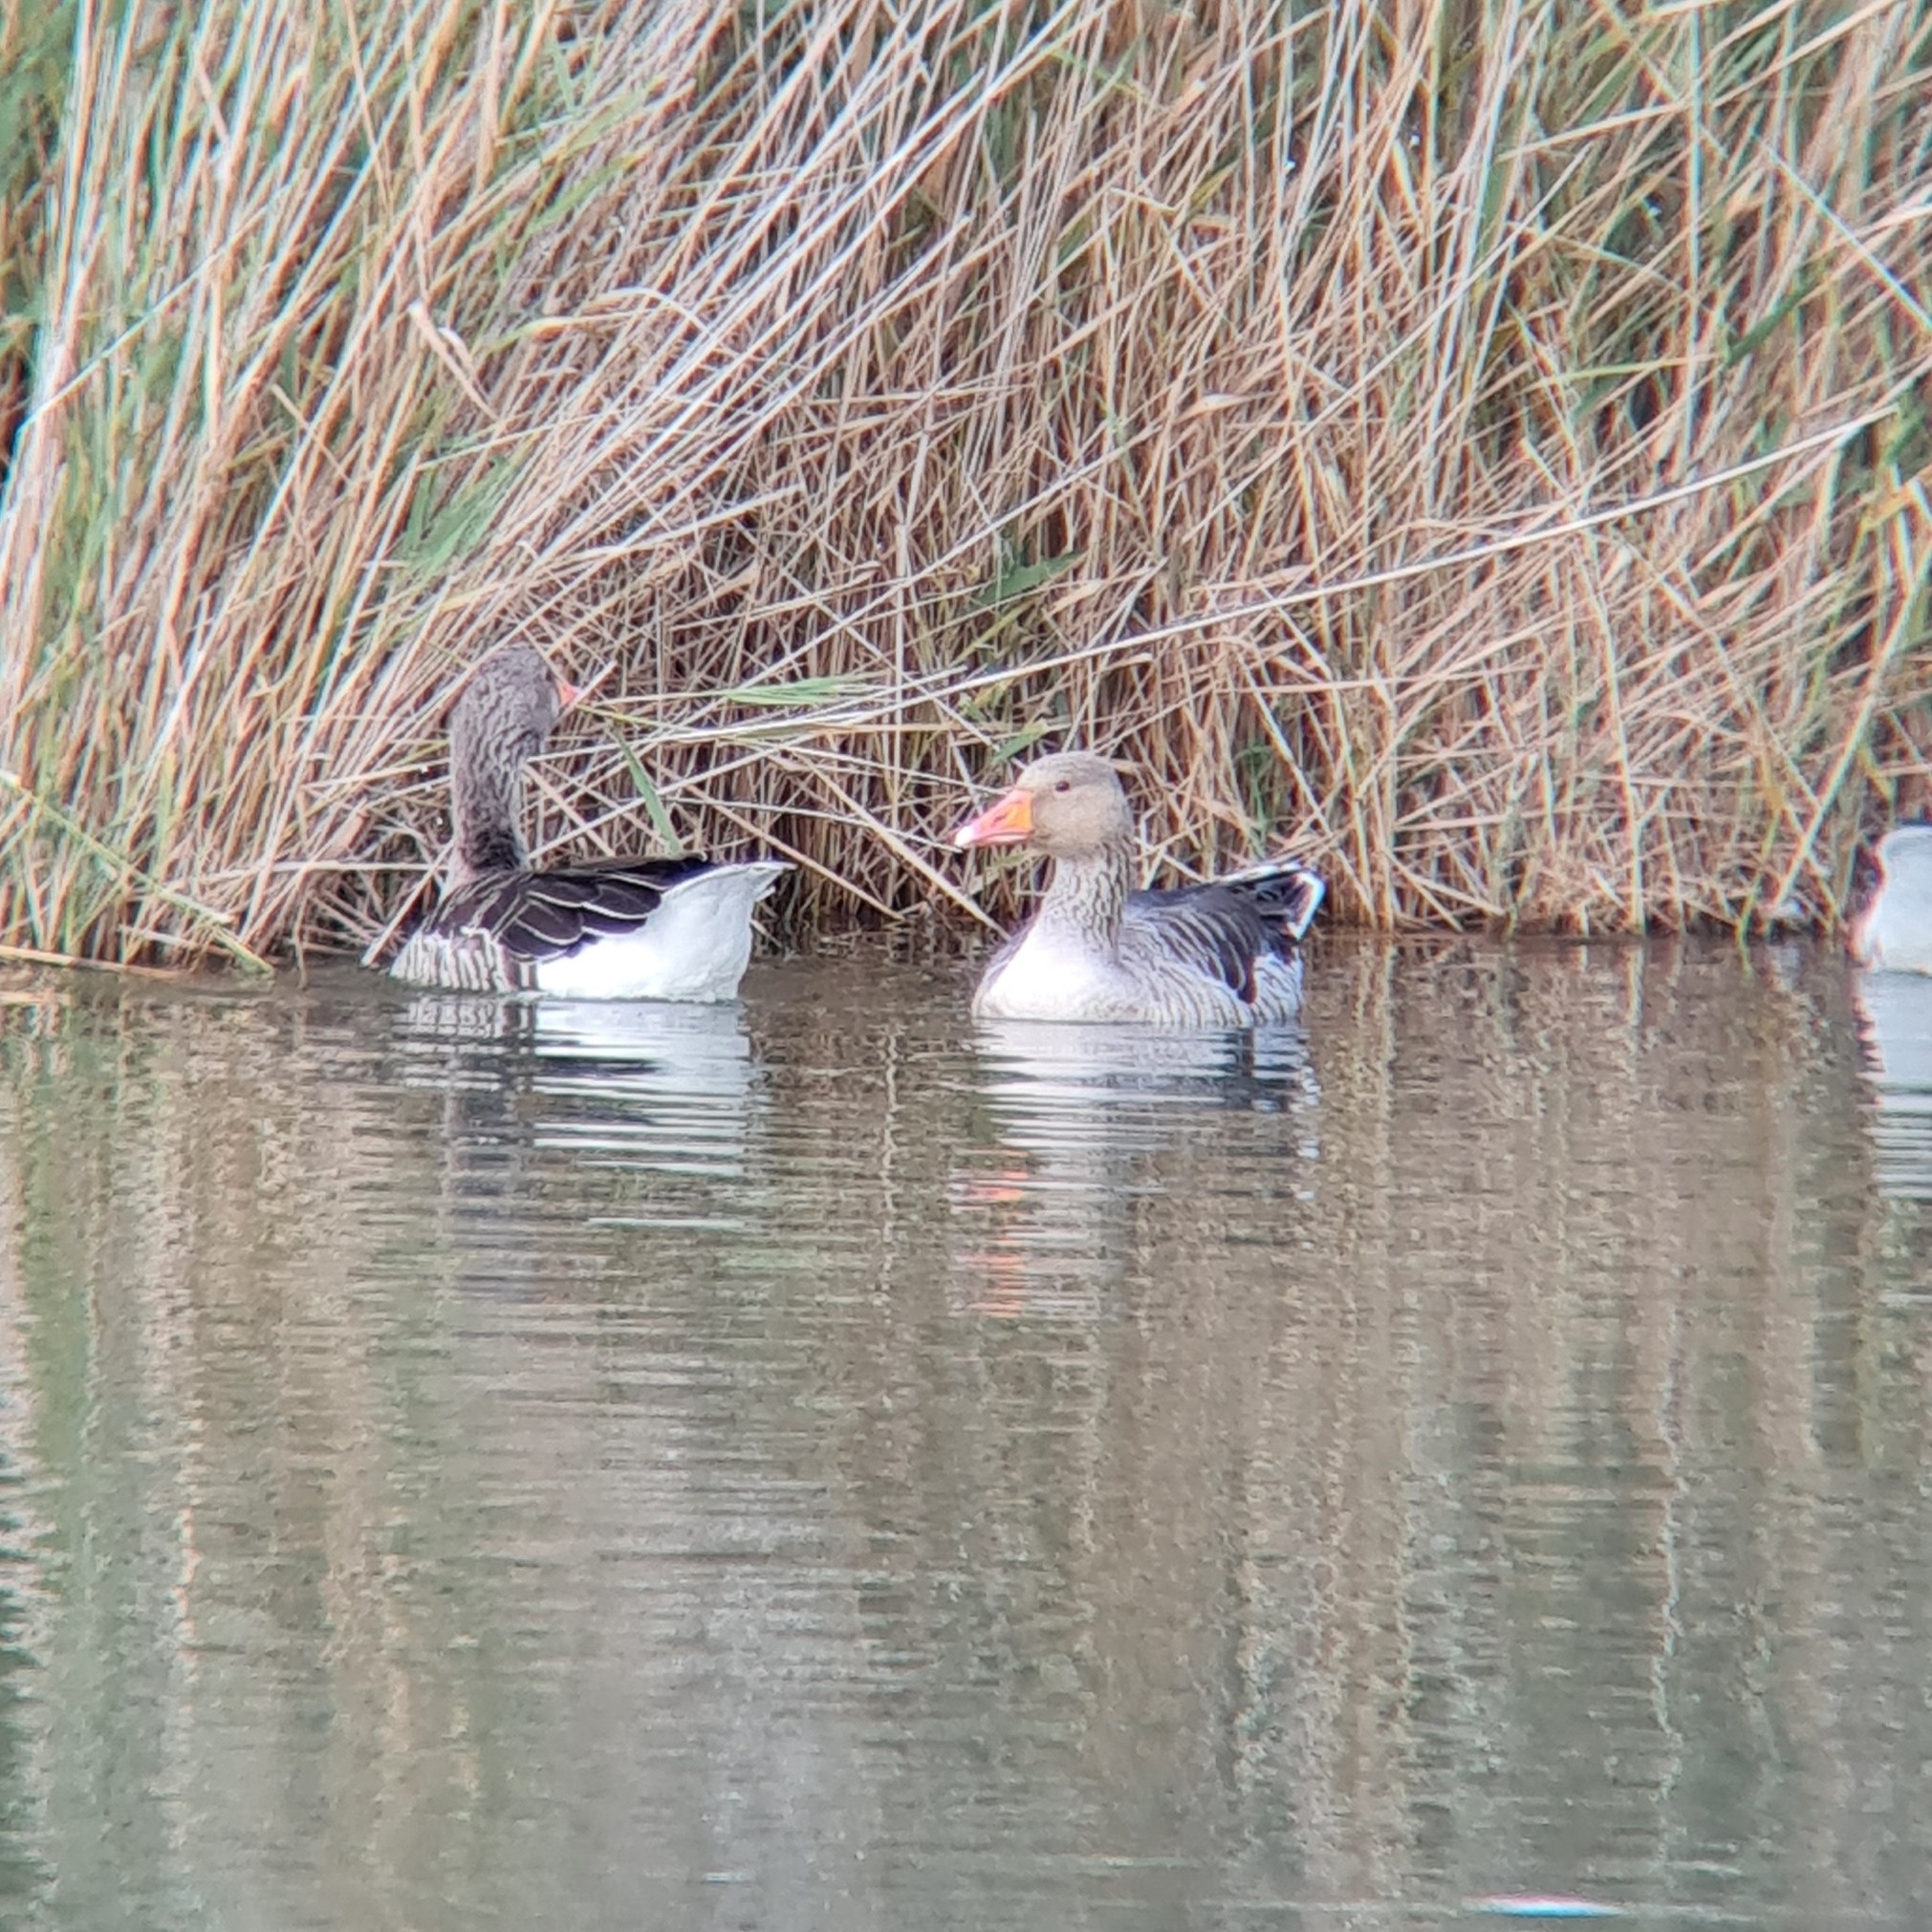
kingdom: Animalia
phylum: Chordata
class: Aves
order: Anseriformes
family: Anatidae
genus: Anser
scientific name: Anser anser
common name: Greylag goose
